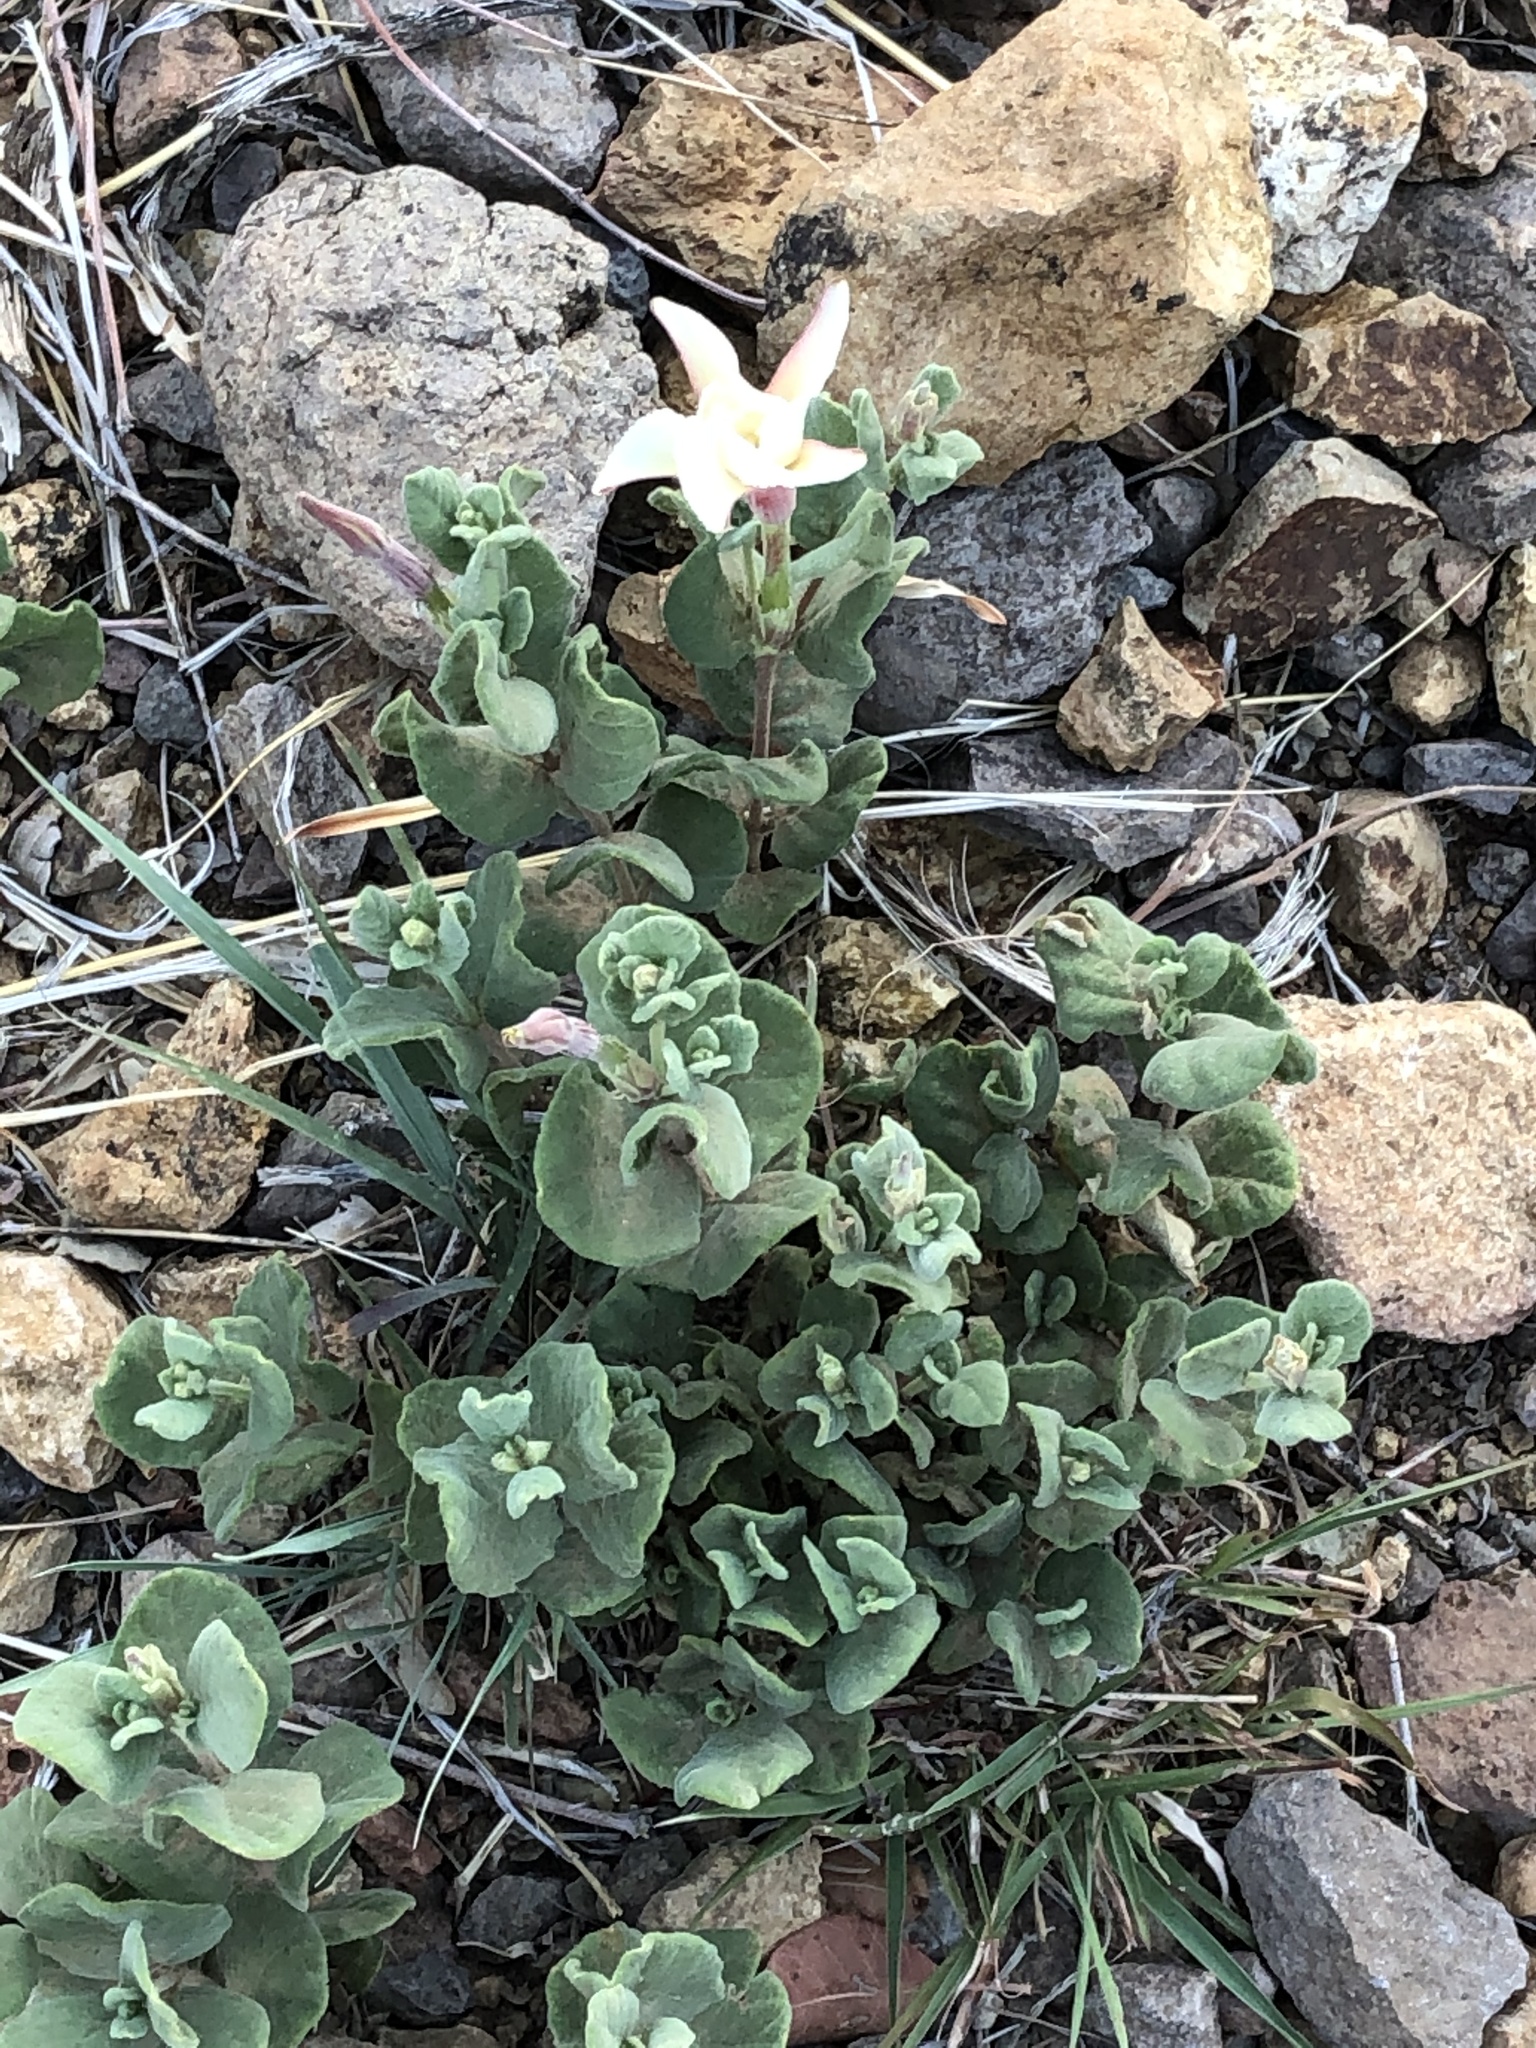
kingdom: Plantae
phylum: Tracheophyta
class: Magnoliopsida
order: Gentianales
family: Apocynaceae
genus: Mandevilla
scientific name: Mandevilla macrosiphon
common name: Plateau rocktrumpet
